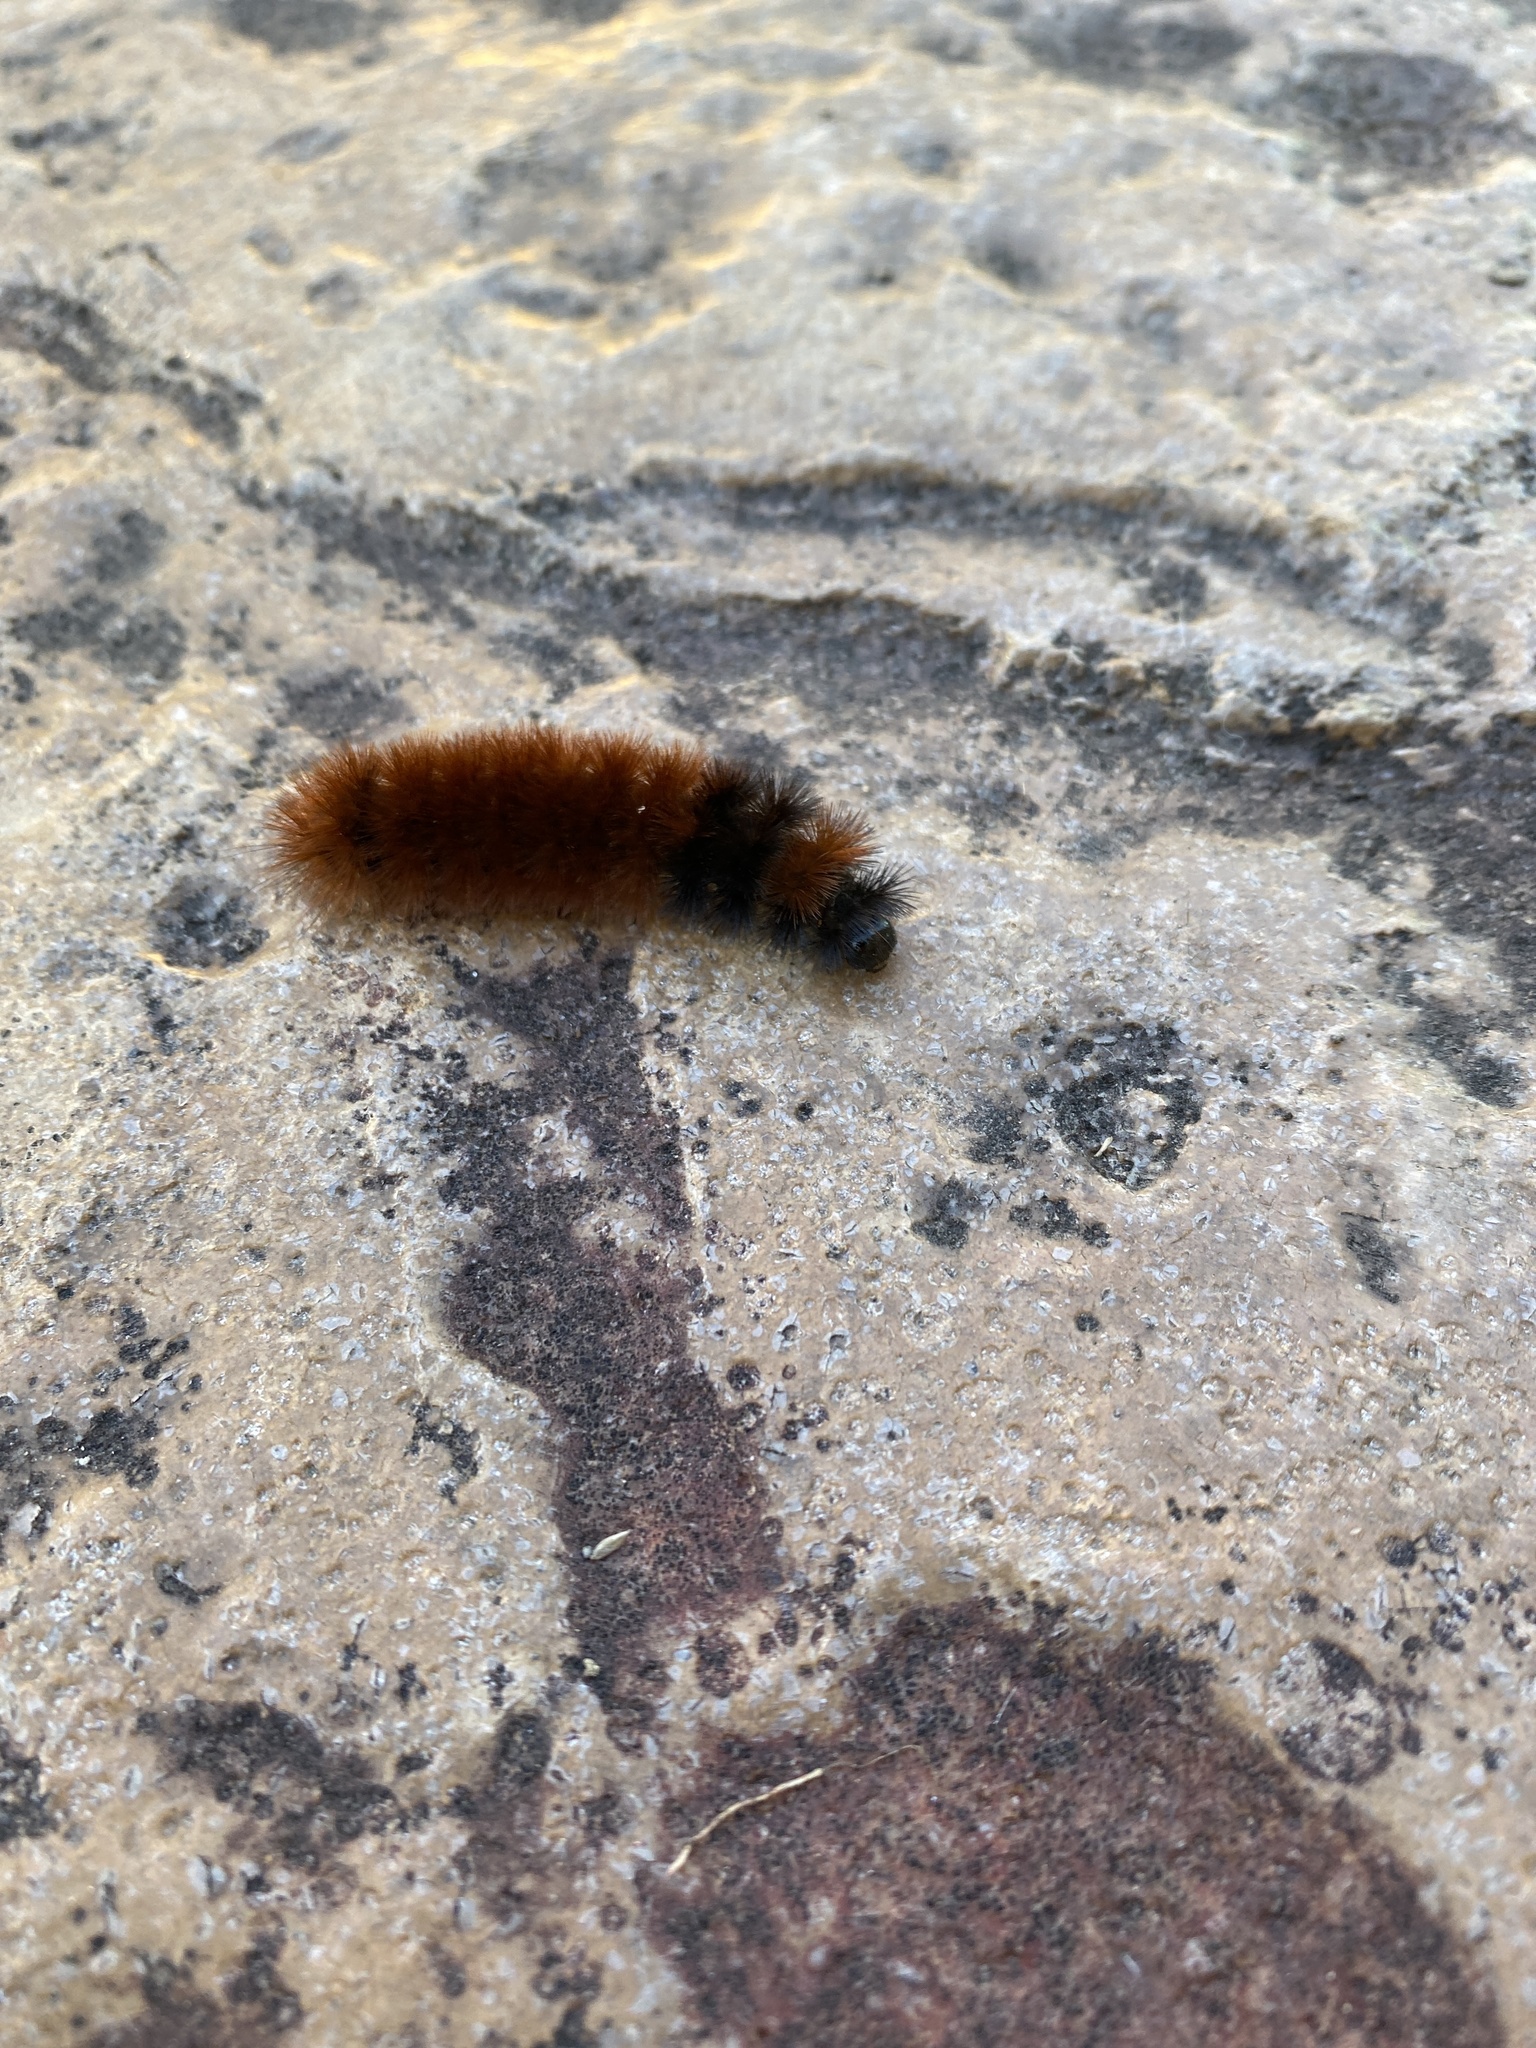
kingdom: Animalia
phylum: Arthropoda
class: Insecta
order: Lepidoptera
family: Erebidae
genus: Pyrrharctia
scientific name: Pyrrharctia isabella
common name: Isabella tiger moth
